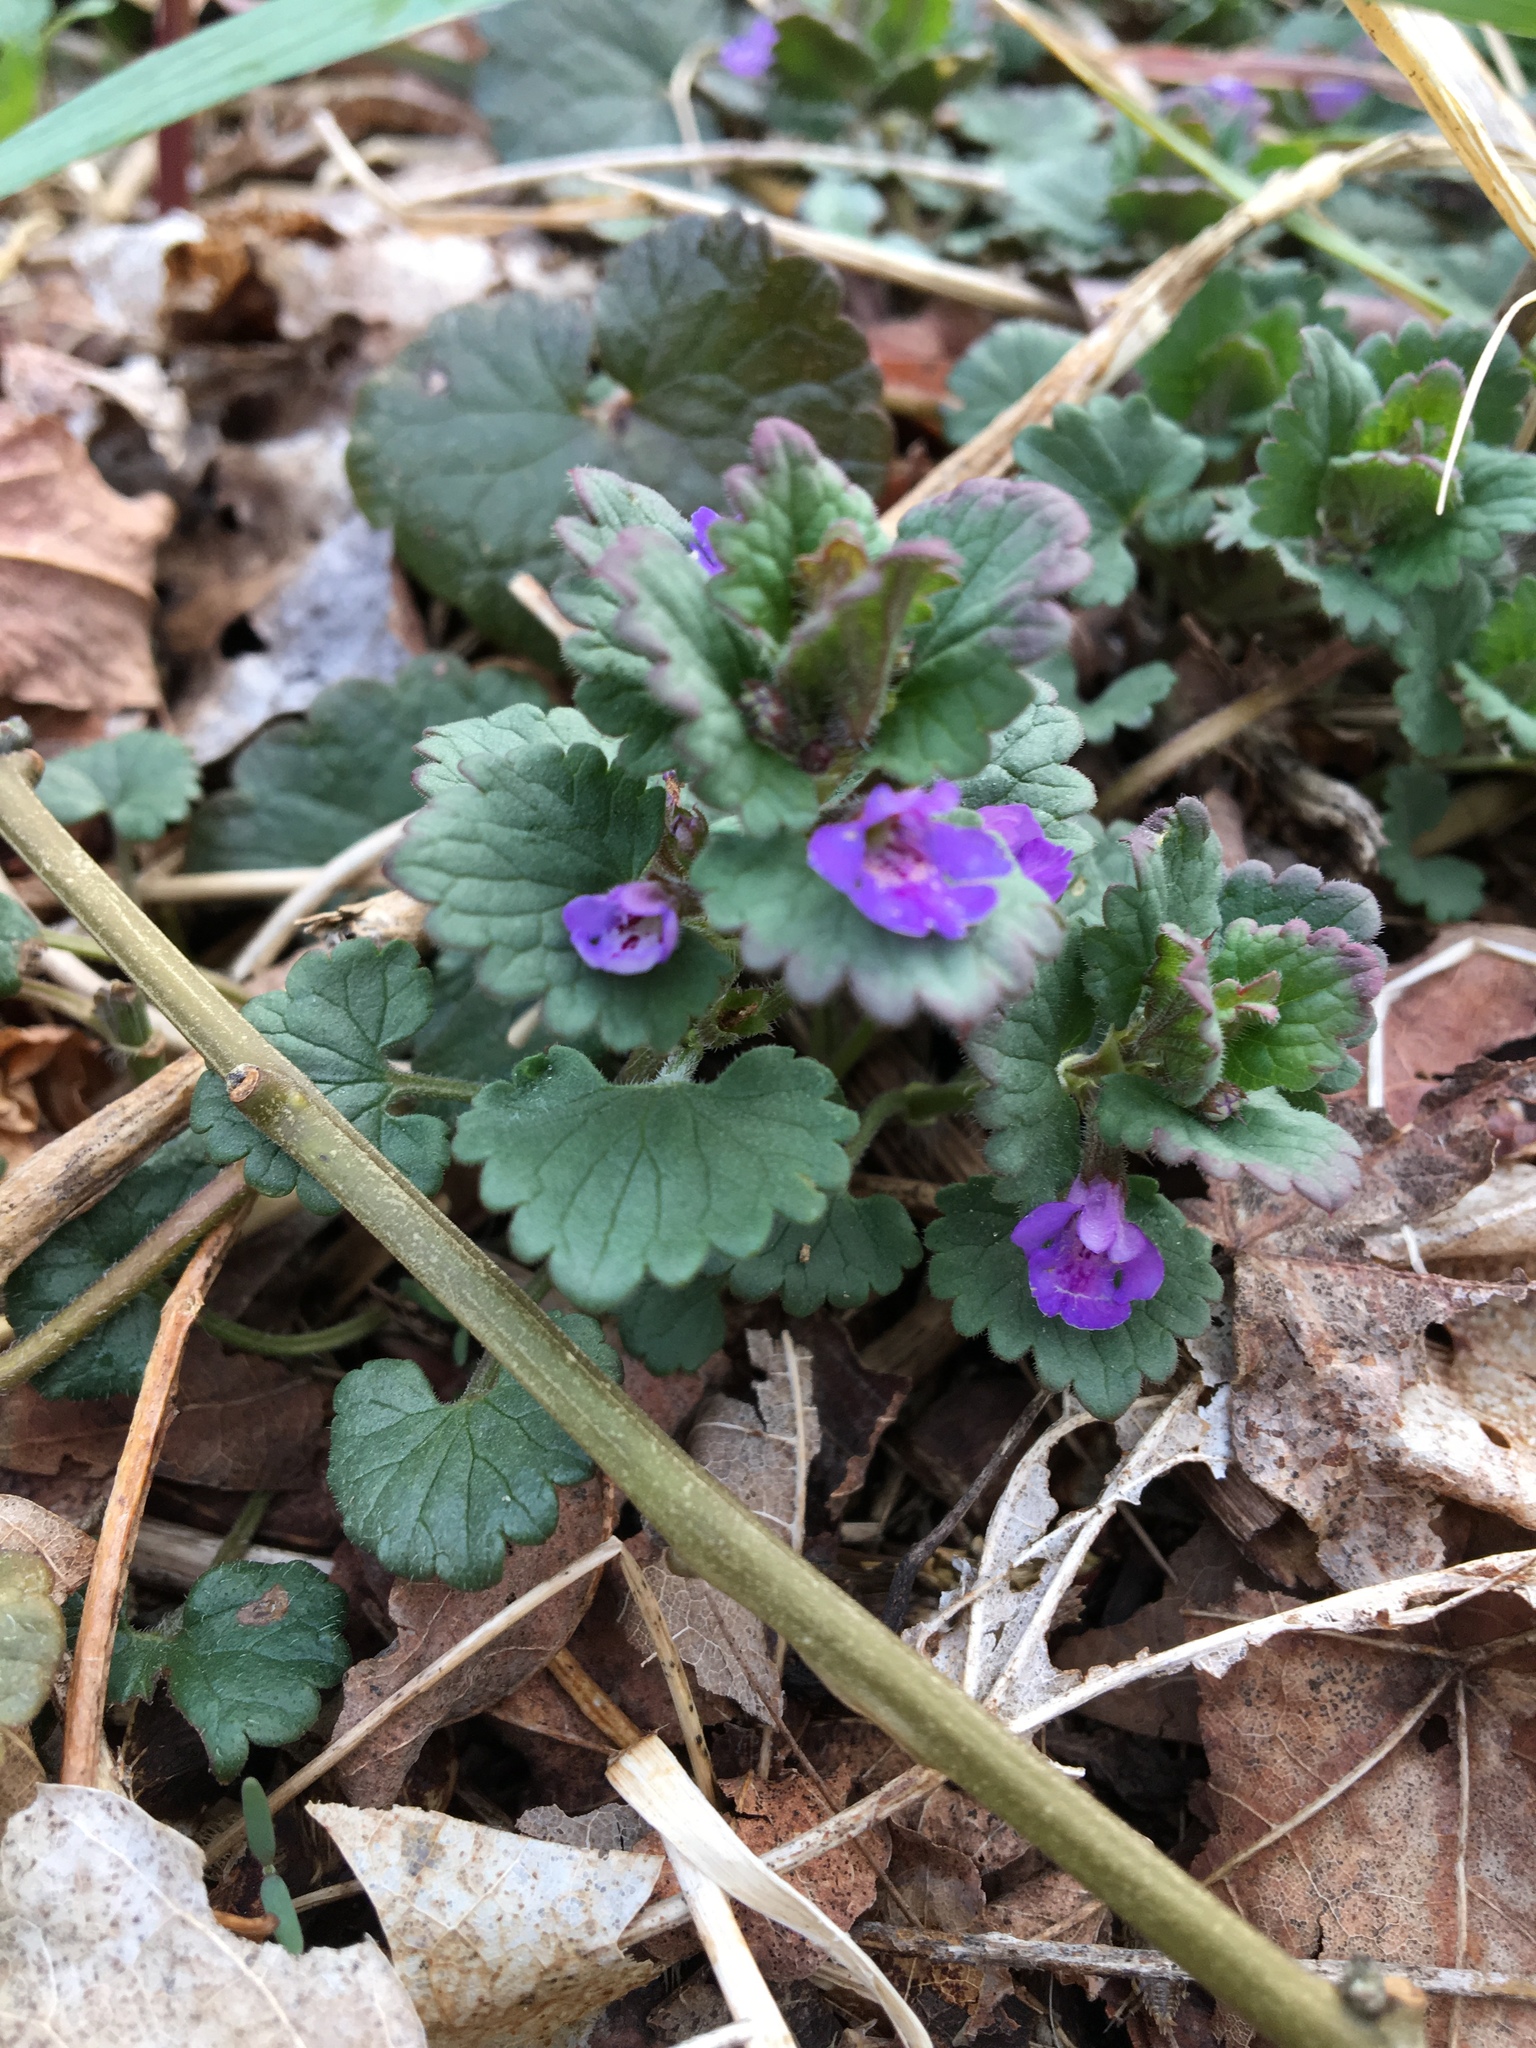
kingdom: Plantae
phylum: Tracheophyta
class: Magnoliopsida
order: Lamiales
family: Lamiaceae
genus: Glechoma
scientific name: Glechoma hederacea
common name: Ground ivy
